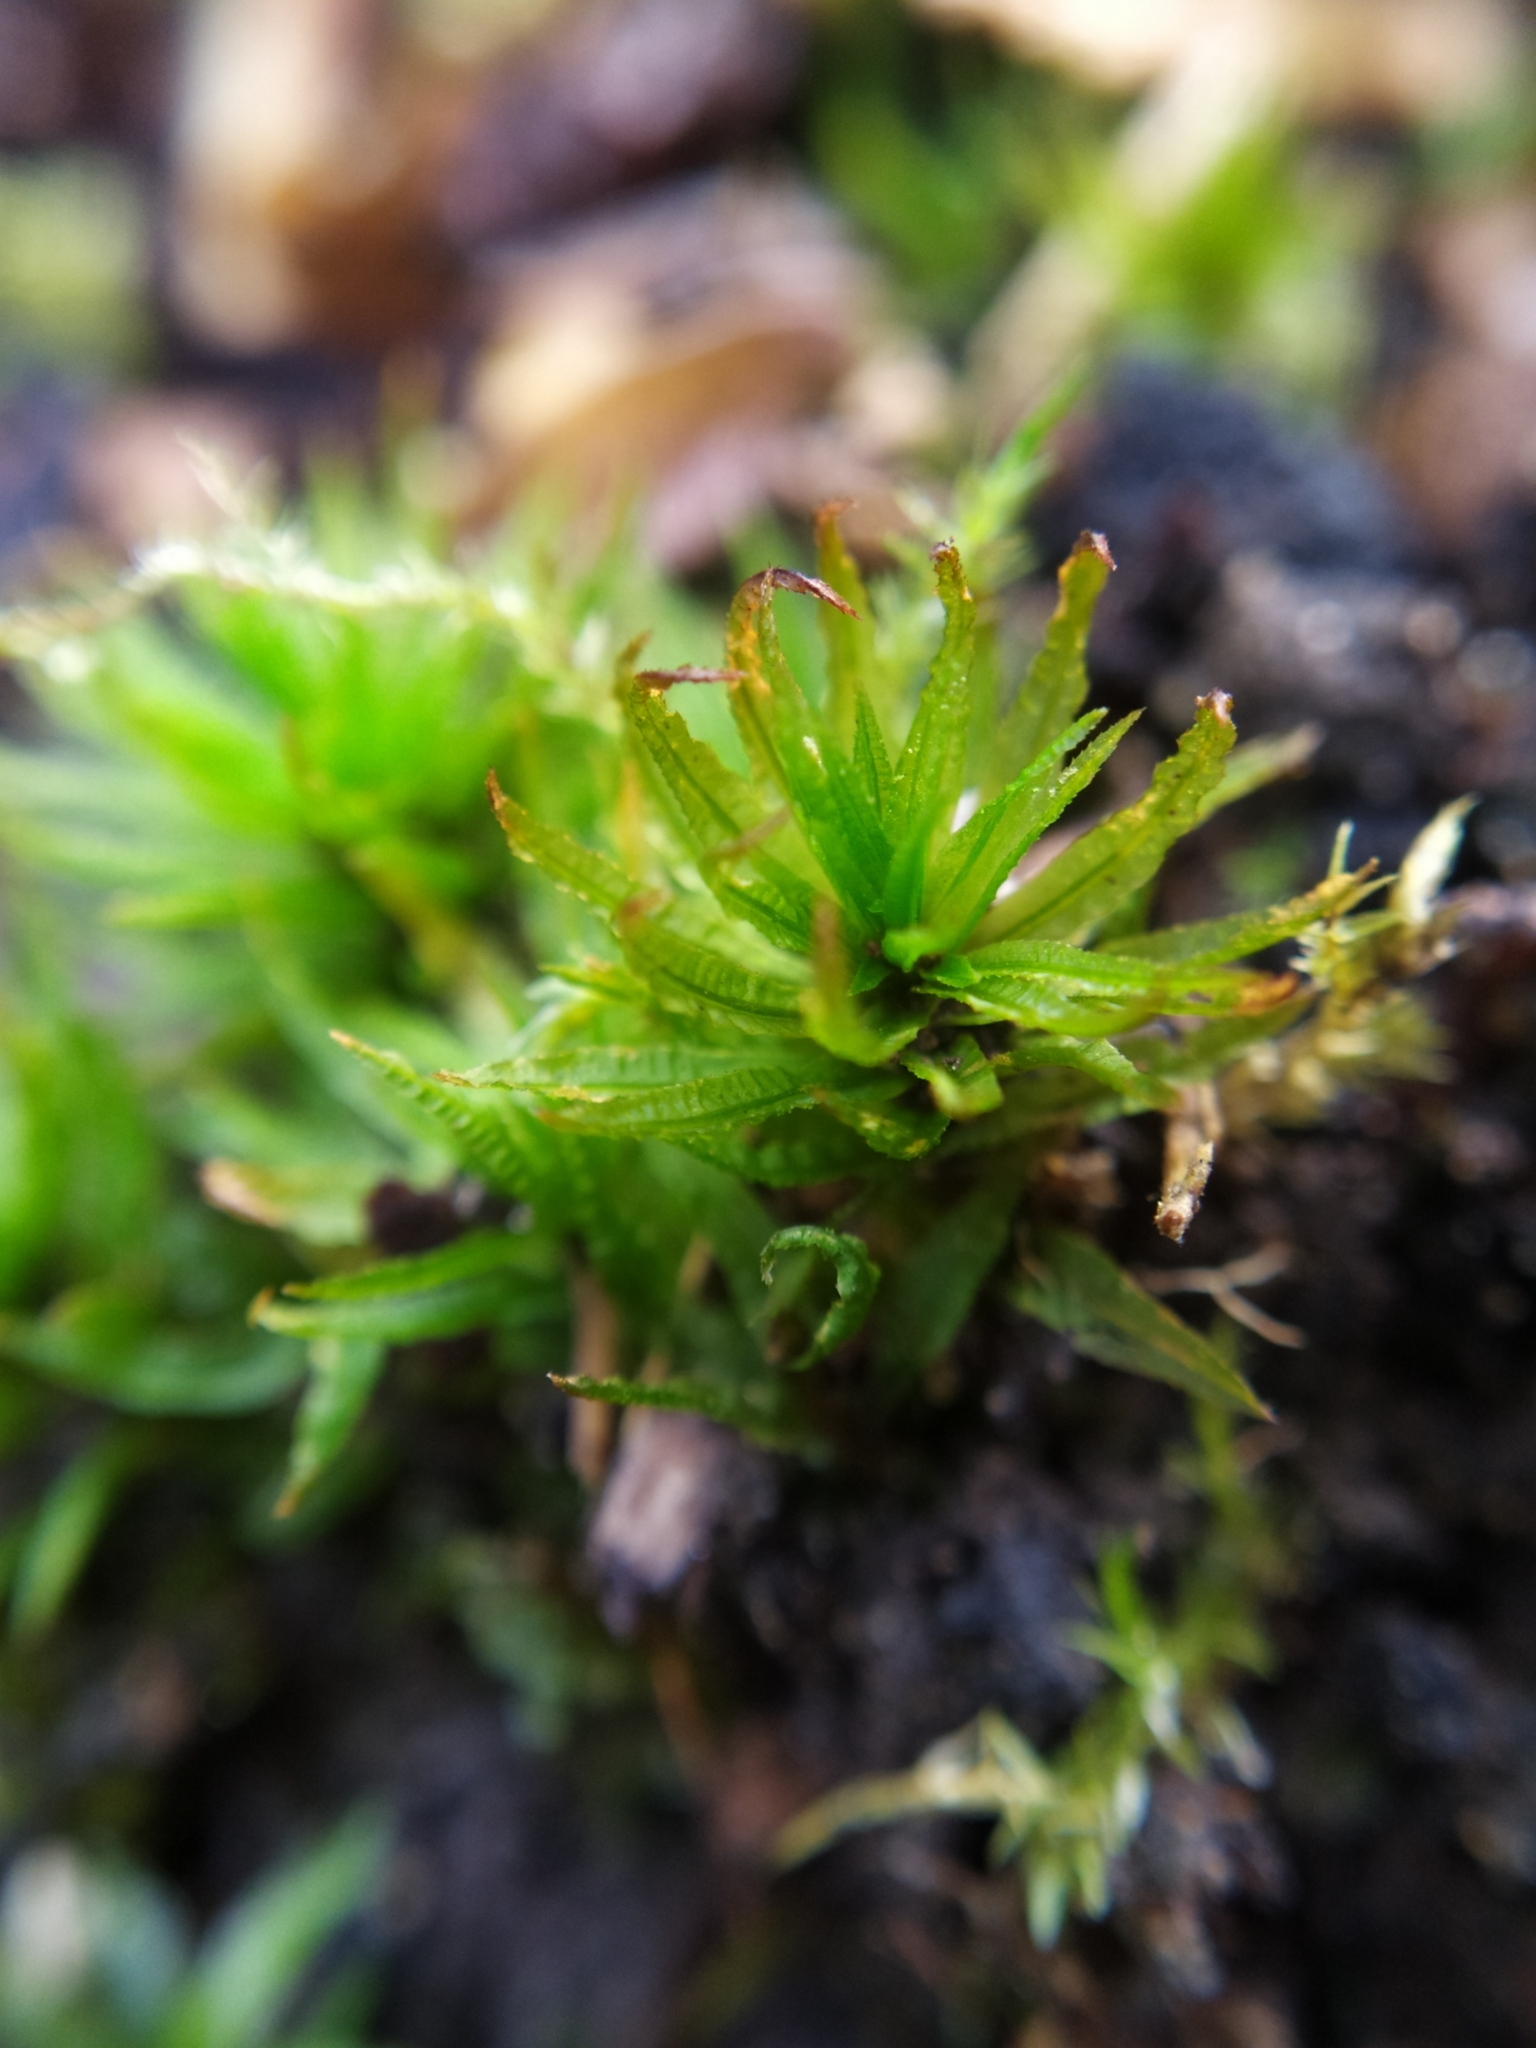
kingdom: Plantae
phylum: Bryophyta
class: Polytrichopsida
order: Polytrichales
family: Polytrichaceae
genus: Atrichum
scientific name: Atrichum undulatum
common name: Common smoothcap
